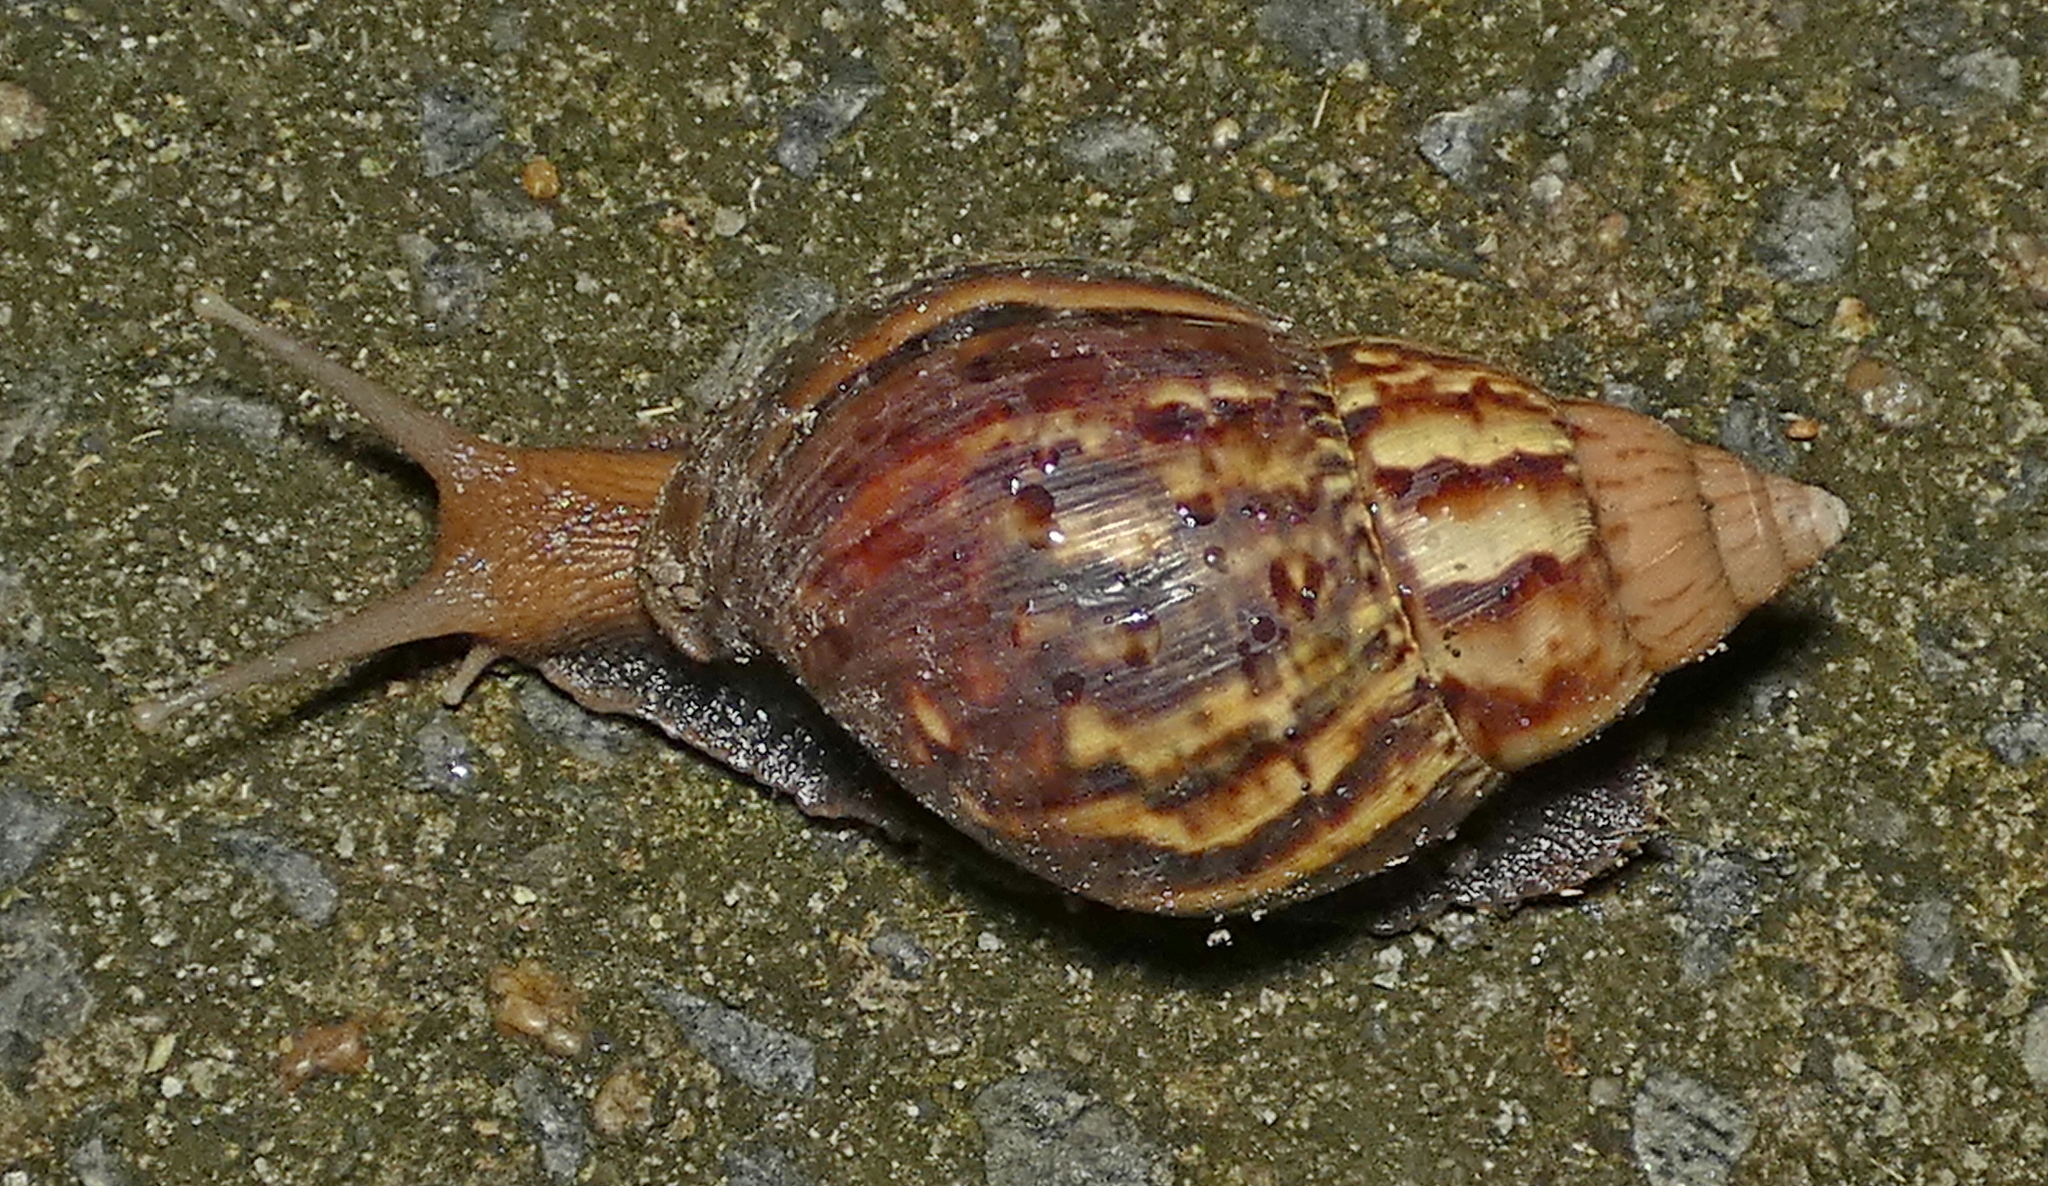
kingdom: Animalia
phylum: Mollusca
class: Gastropoda
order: Stylommatophora
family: Achatinidae
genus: Lissachatina
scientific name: Lissachatina fulica
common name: Giant african snail
